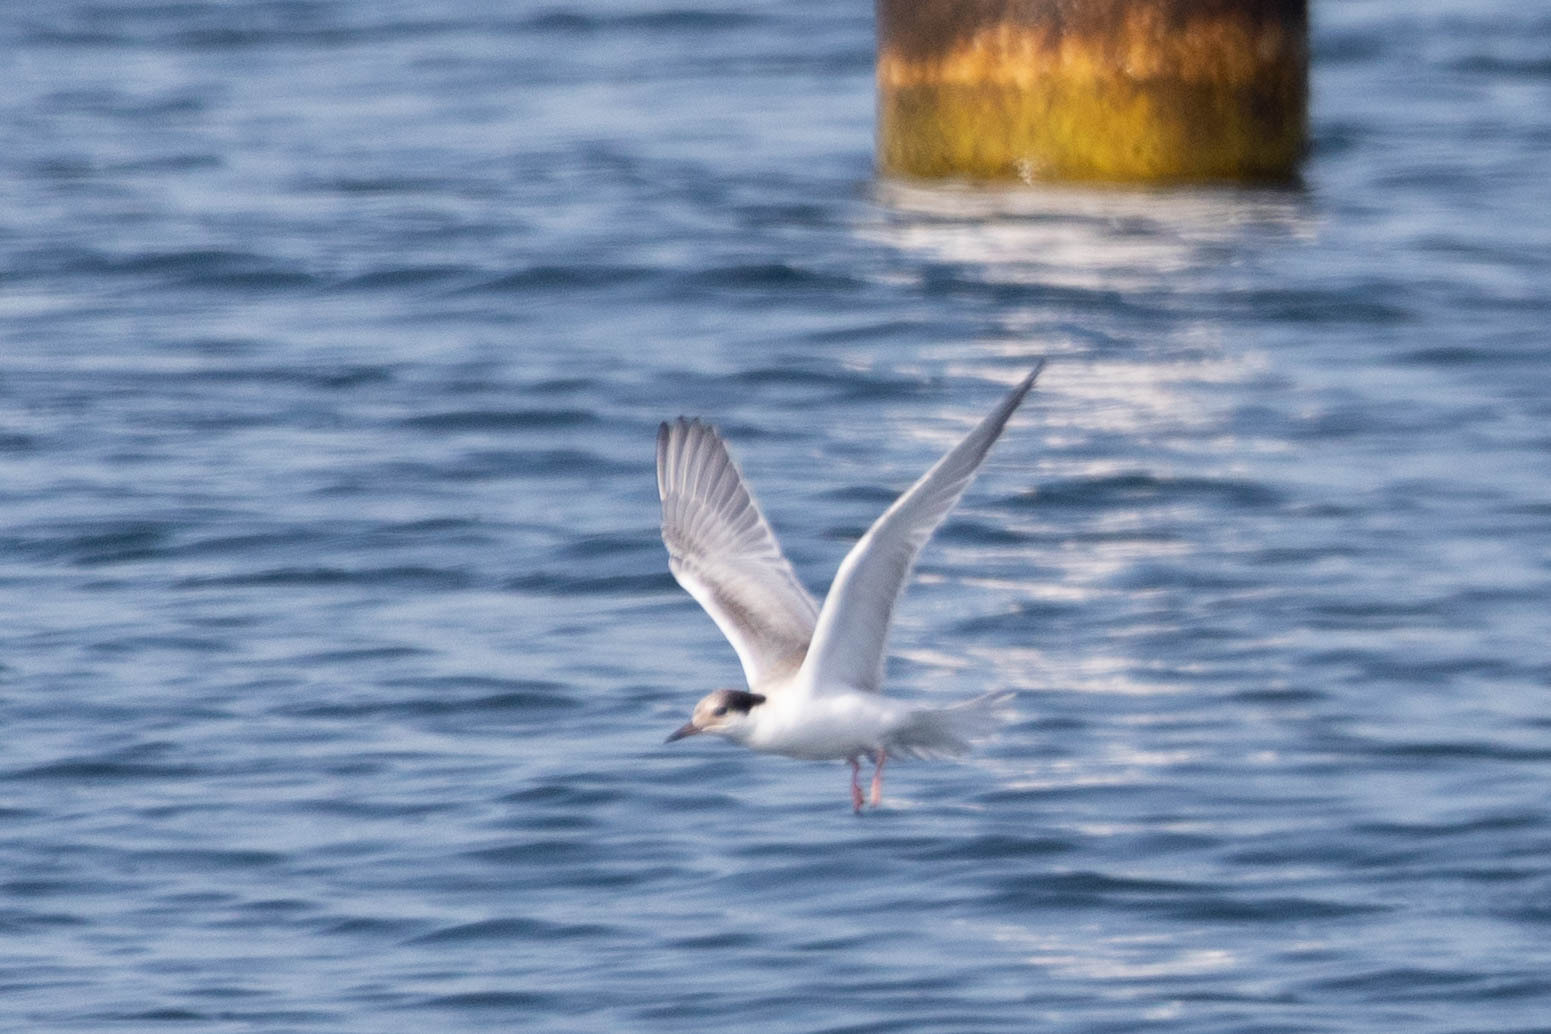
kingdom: Animalia
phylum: Chordata
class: Aves
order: Charadriiformes
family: Laridae
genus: Sterna
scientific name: Sterna hirundo
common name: Common tern
